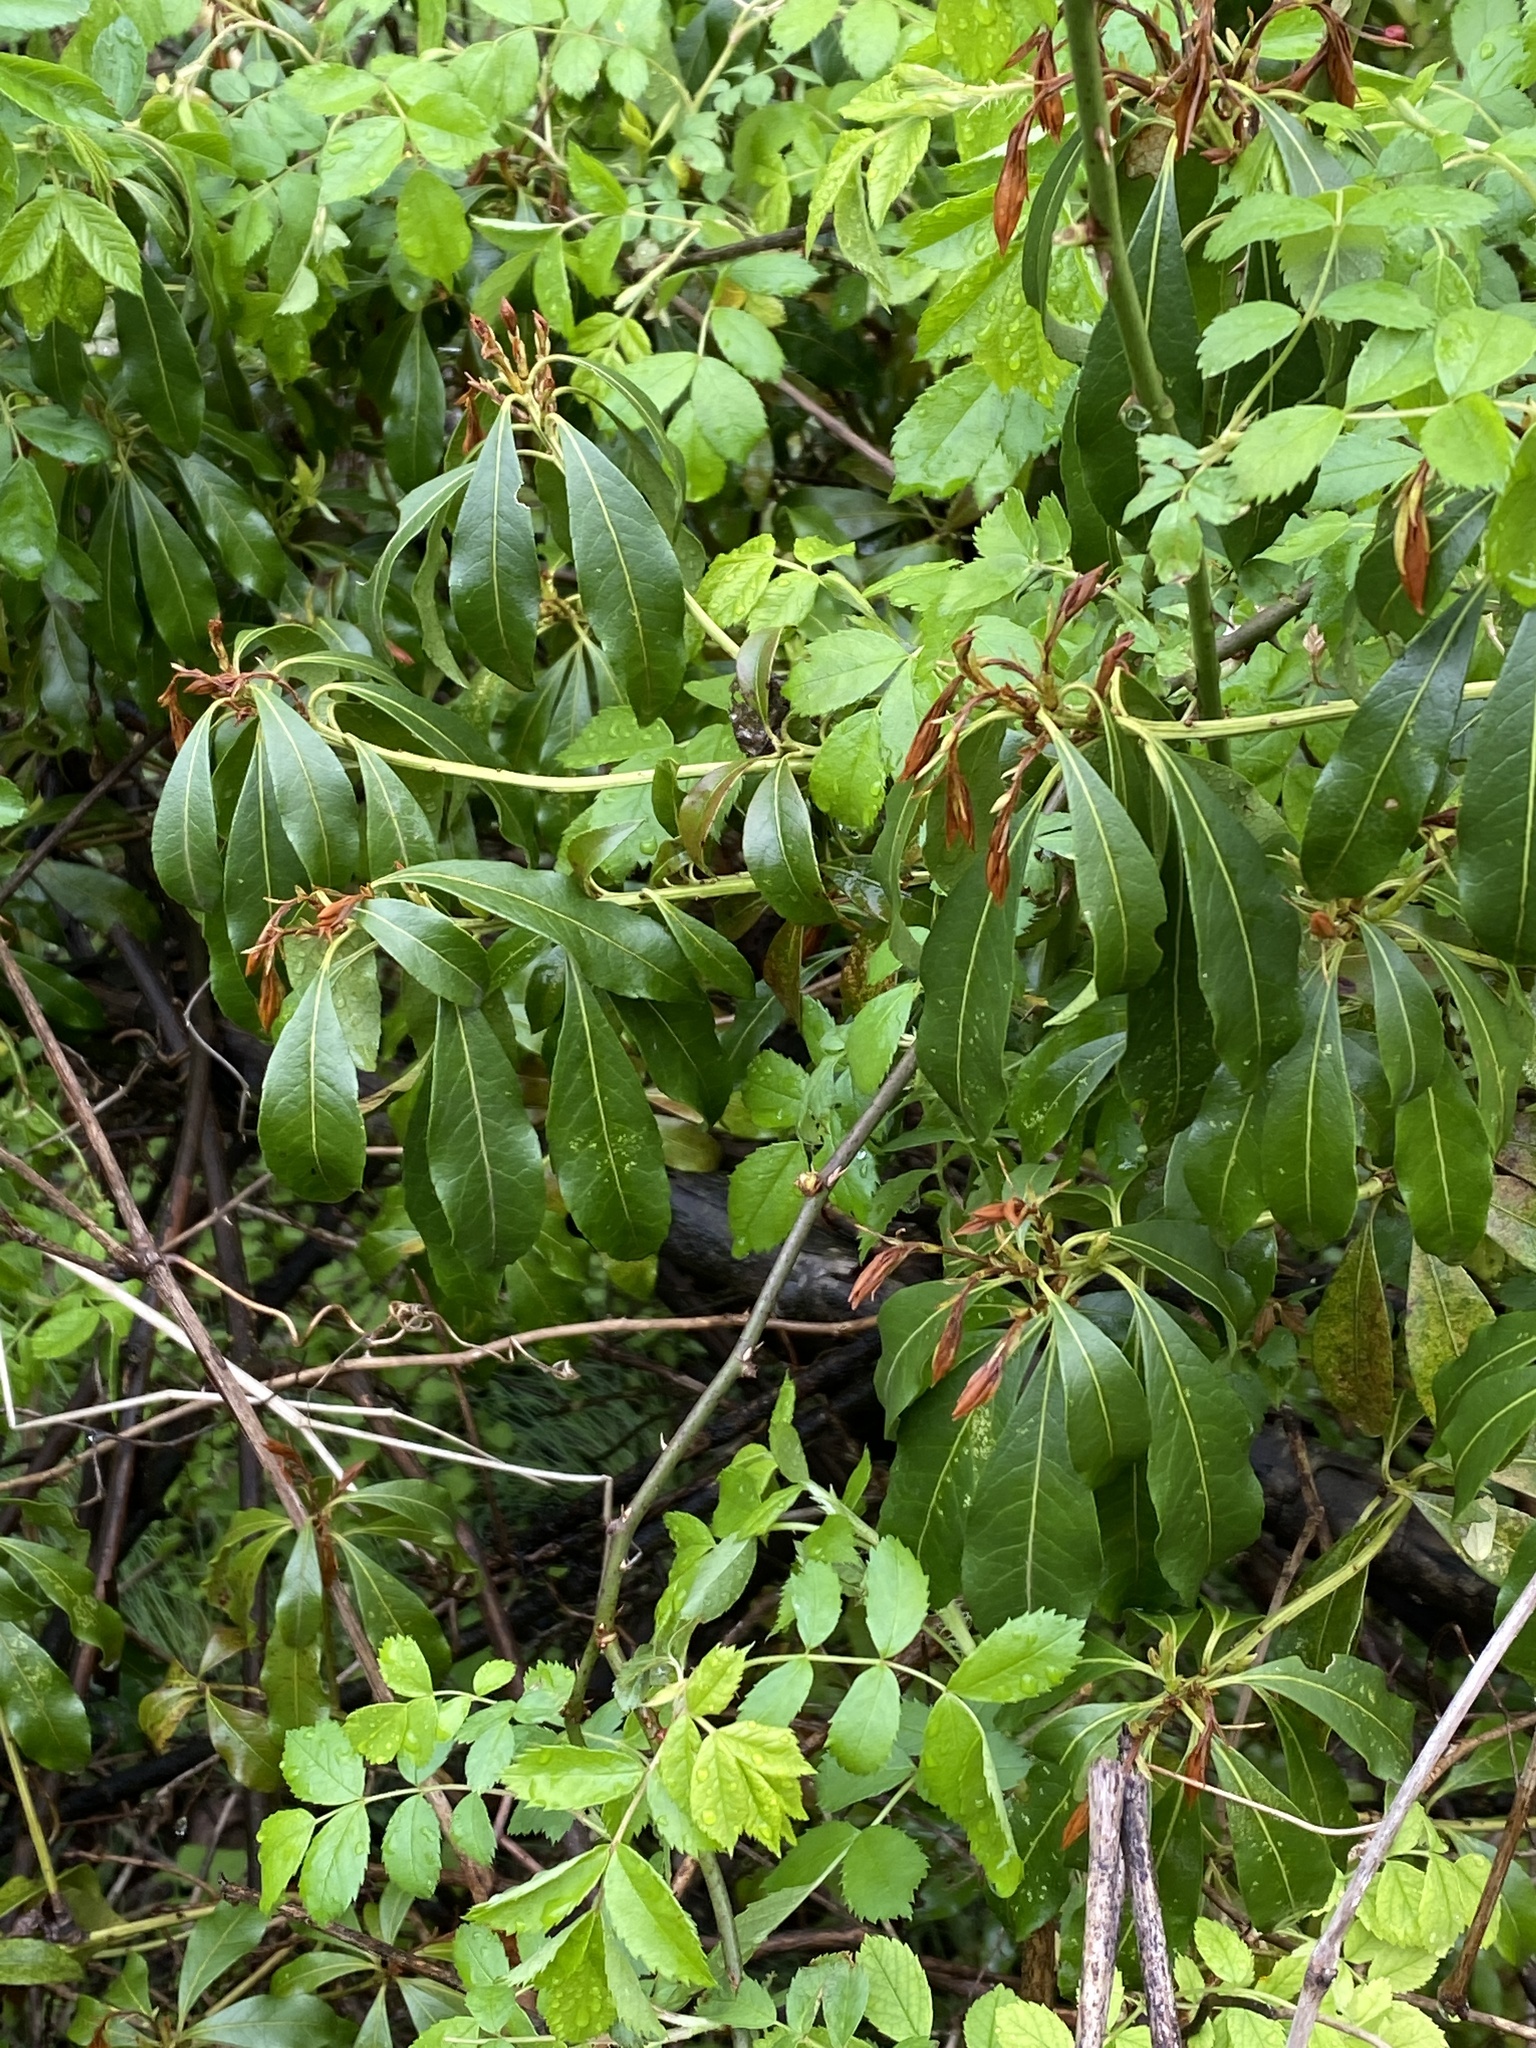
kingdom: Plantae
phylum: Tracheophyta
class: Magnoliopsida
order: Ericales
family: Ericaceae
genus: Pieris
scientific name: Pieris japonica
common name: Japanese pieris
